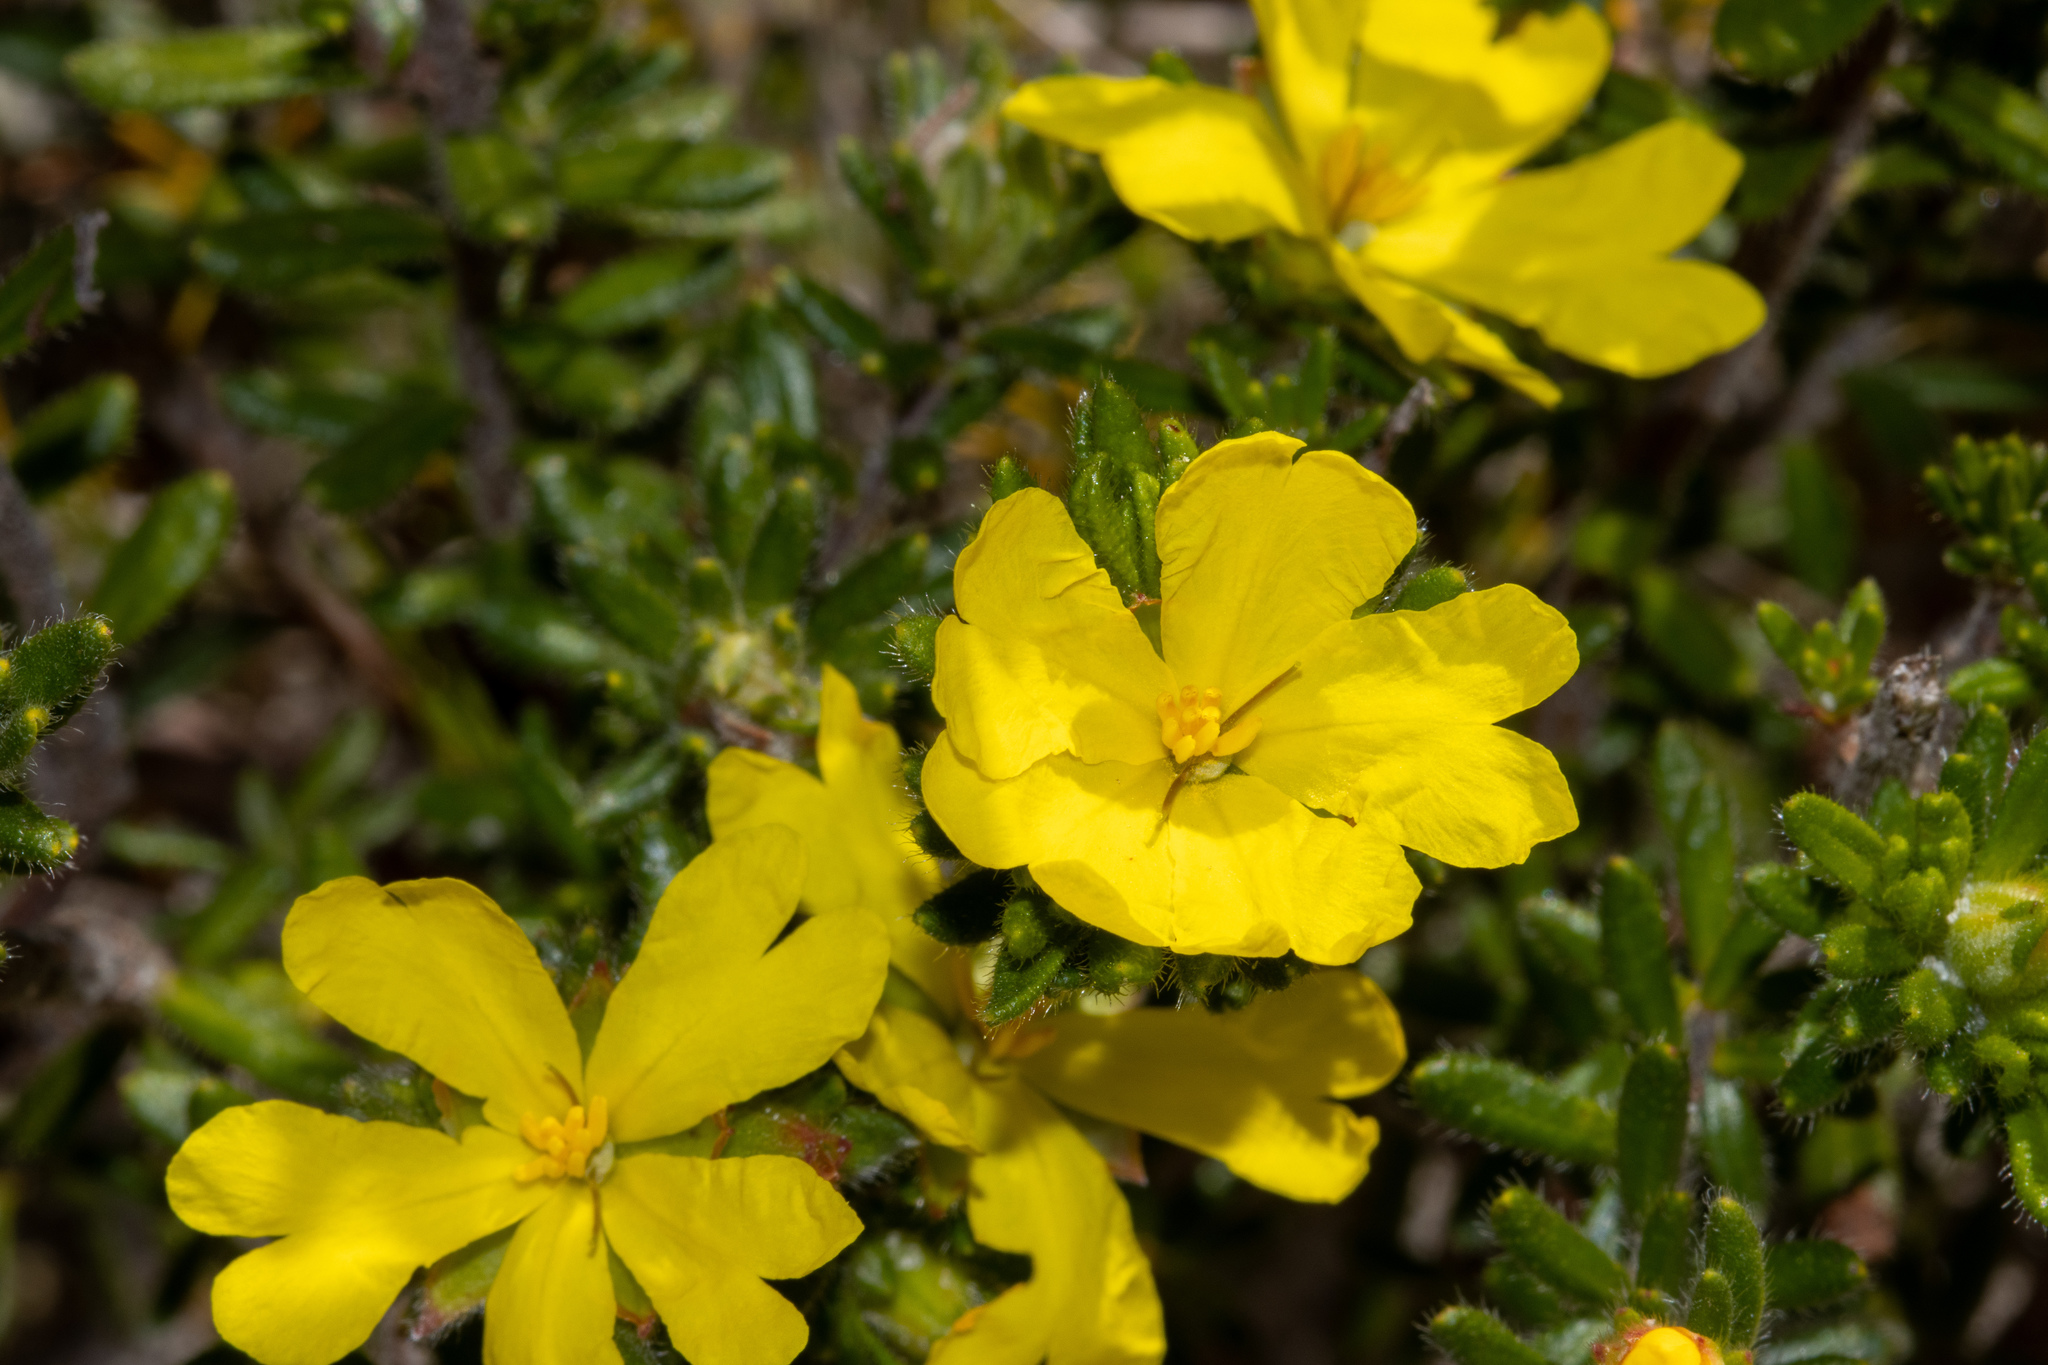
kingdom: Plantae
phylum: Tracheophyta
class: Magnoliopsida
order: Dilleniales
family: Dilleniaceae
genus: Hibbertia
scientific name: Hibbertia sericea
